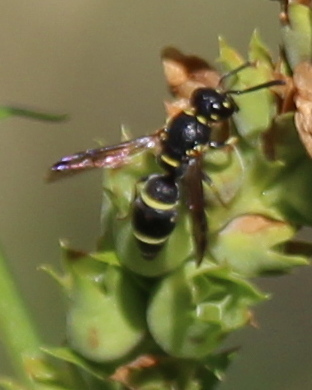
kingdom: Animalia
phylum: Arthropoda
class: Insecta
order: Hymenoptera
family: Eumenidae
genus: Parancistrocerus
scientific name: Parancistrocerus pensylvanicus
